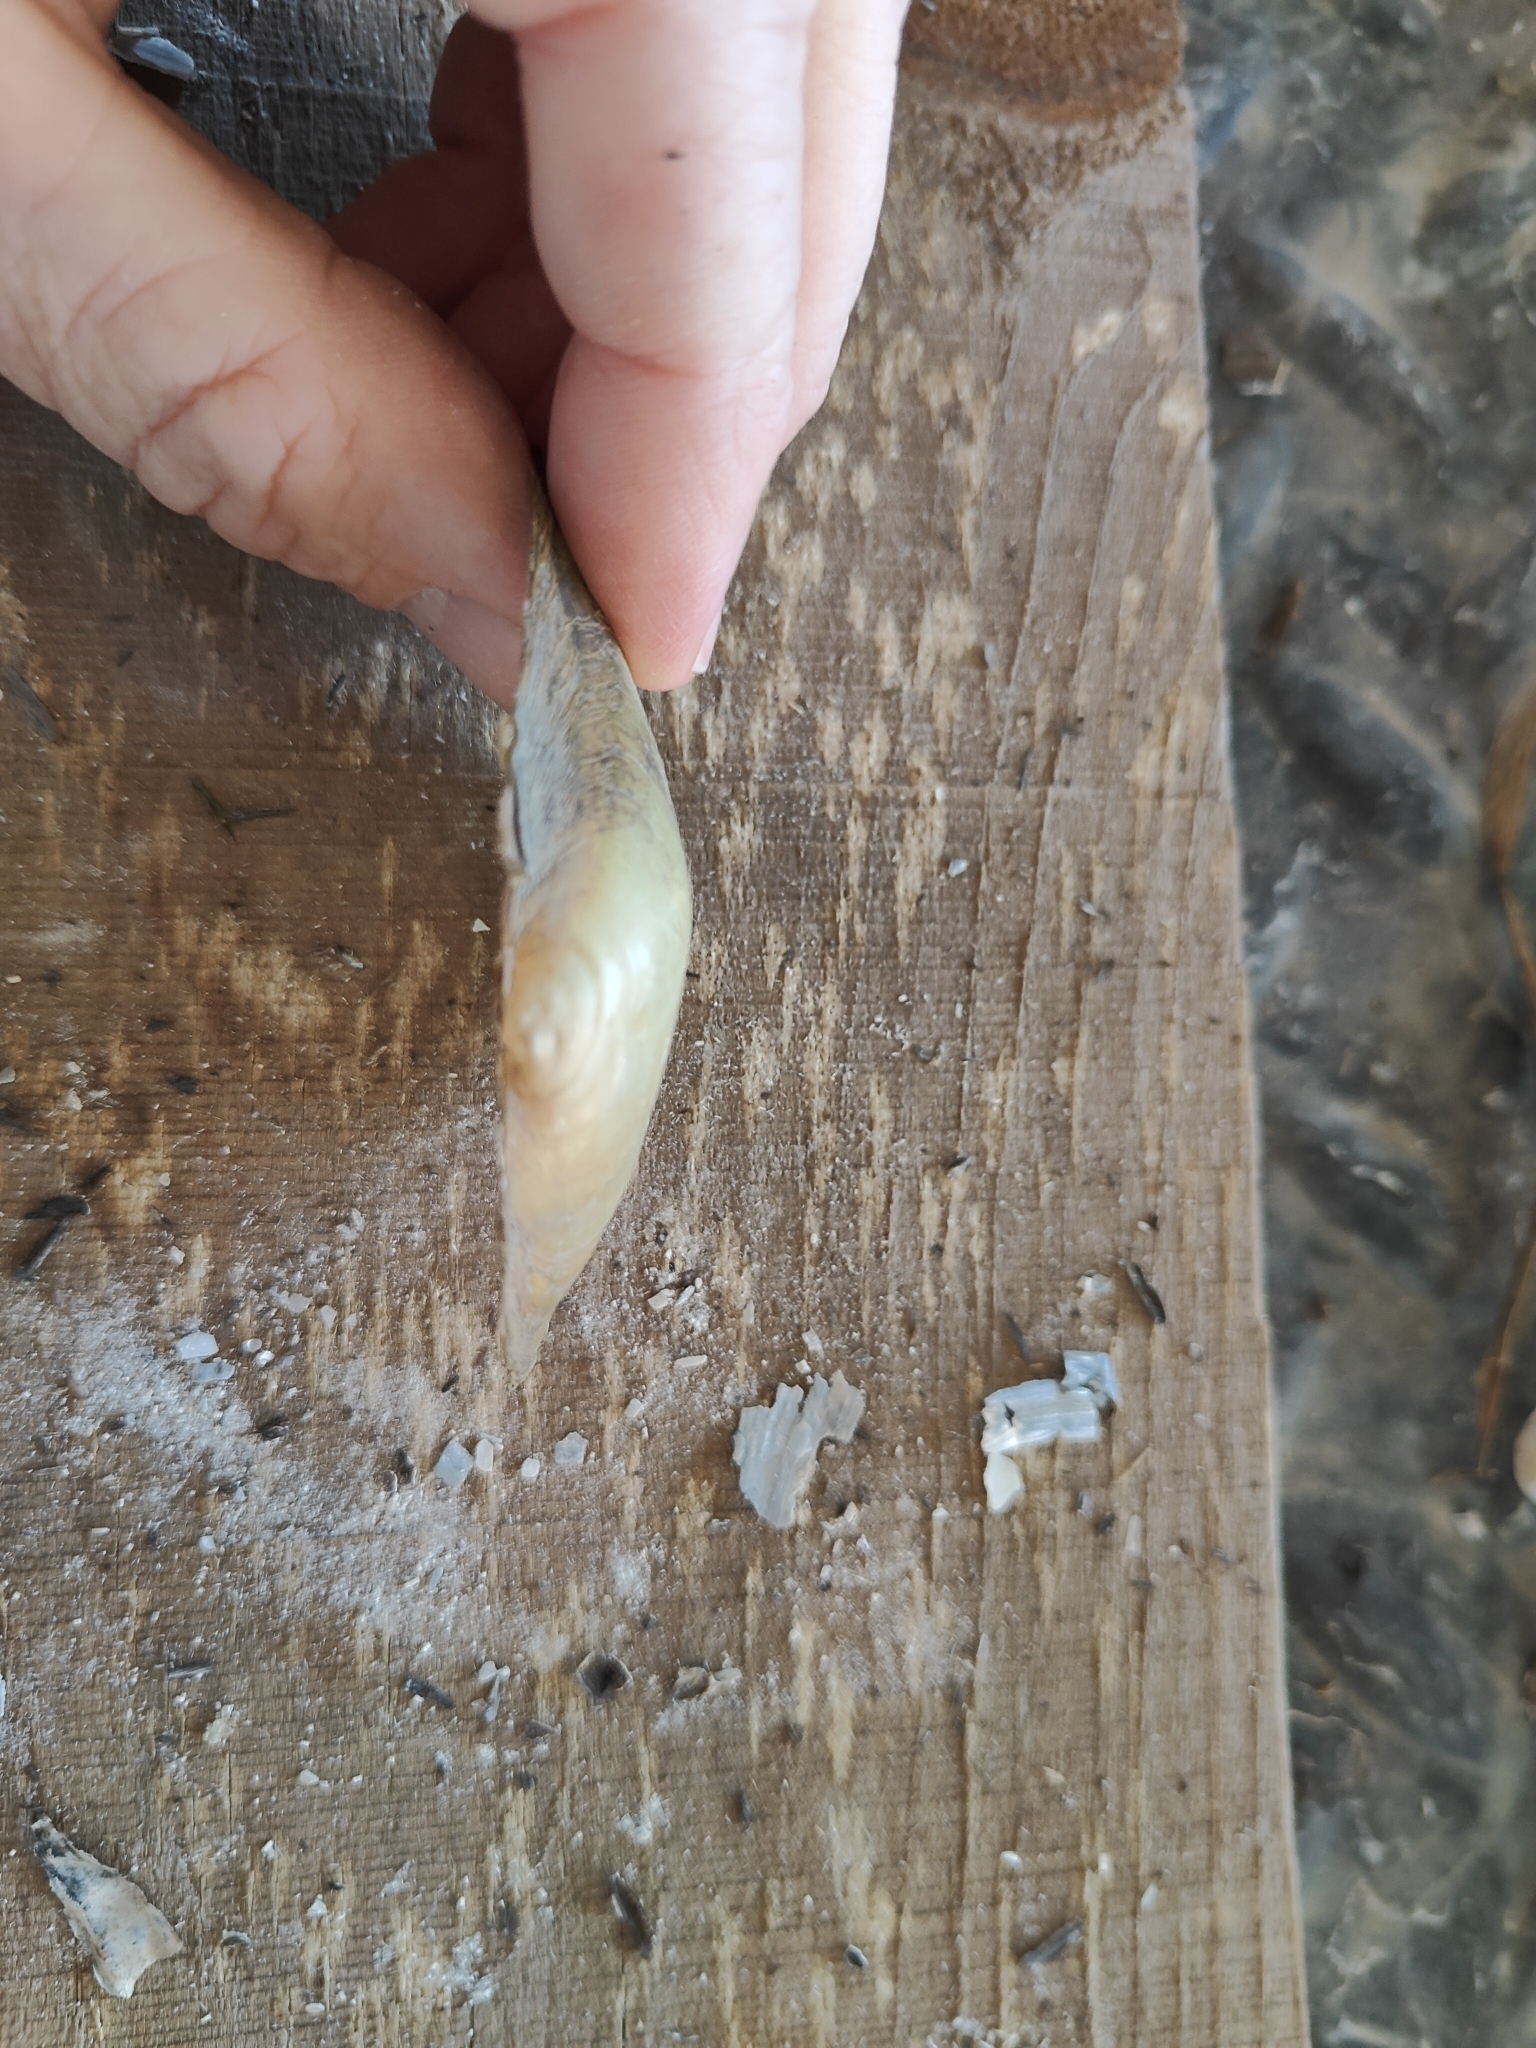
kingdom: Animalia
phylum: Mollusca
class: Bivalvia
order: Unionida
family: Unionidae
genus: Pyganodon
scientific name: Pyganodon grandis
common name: Giant floater
